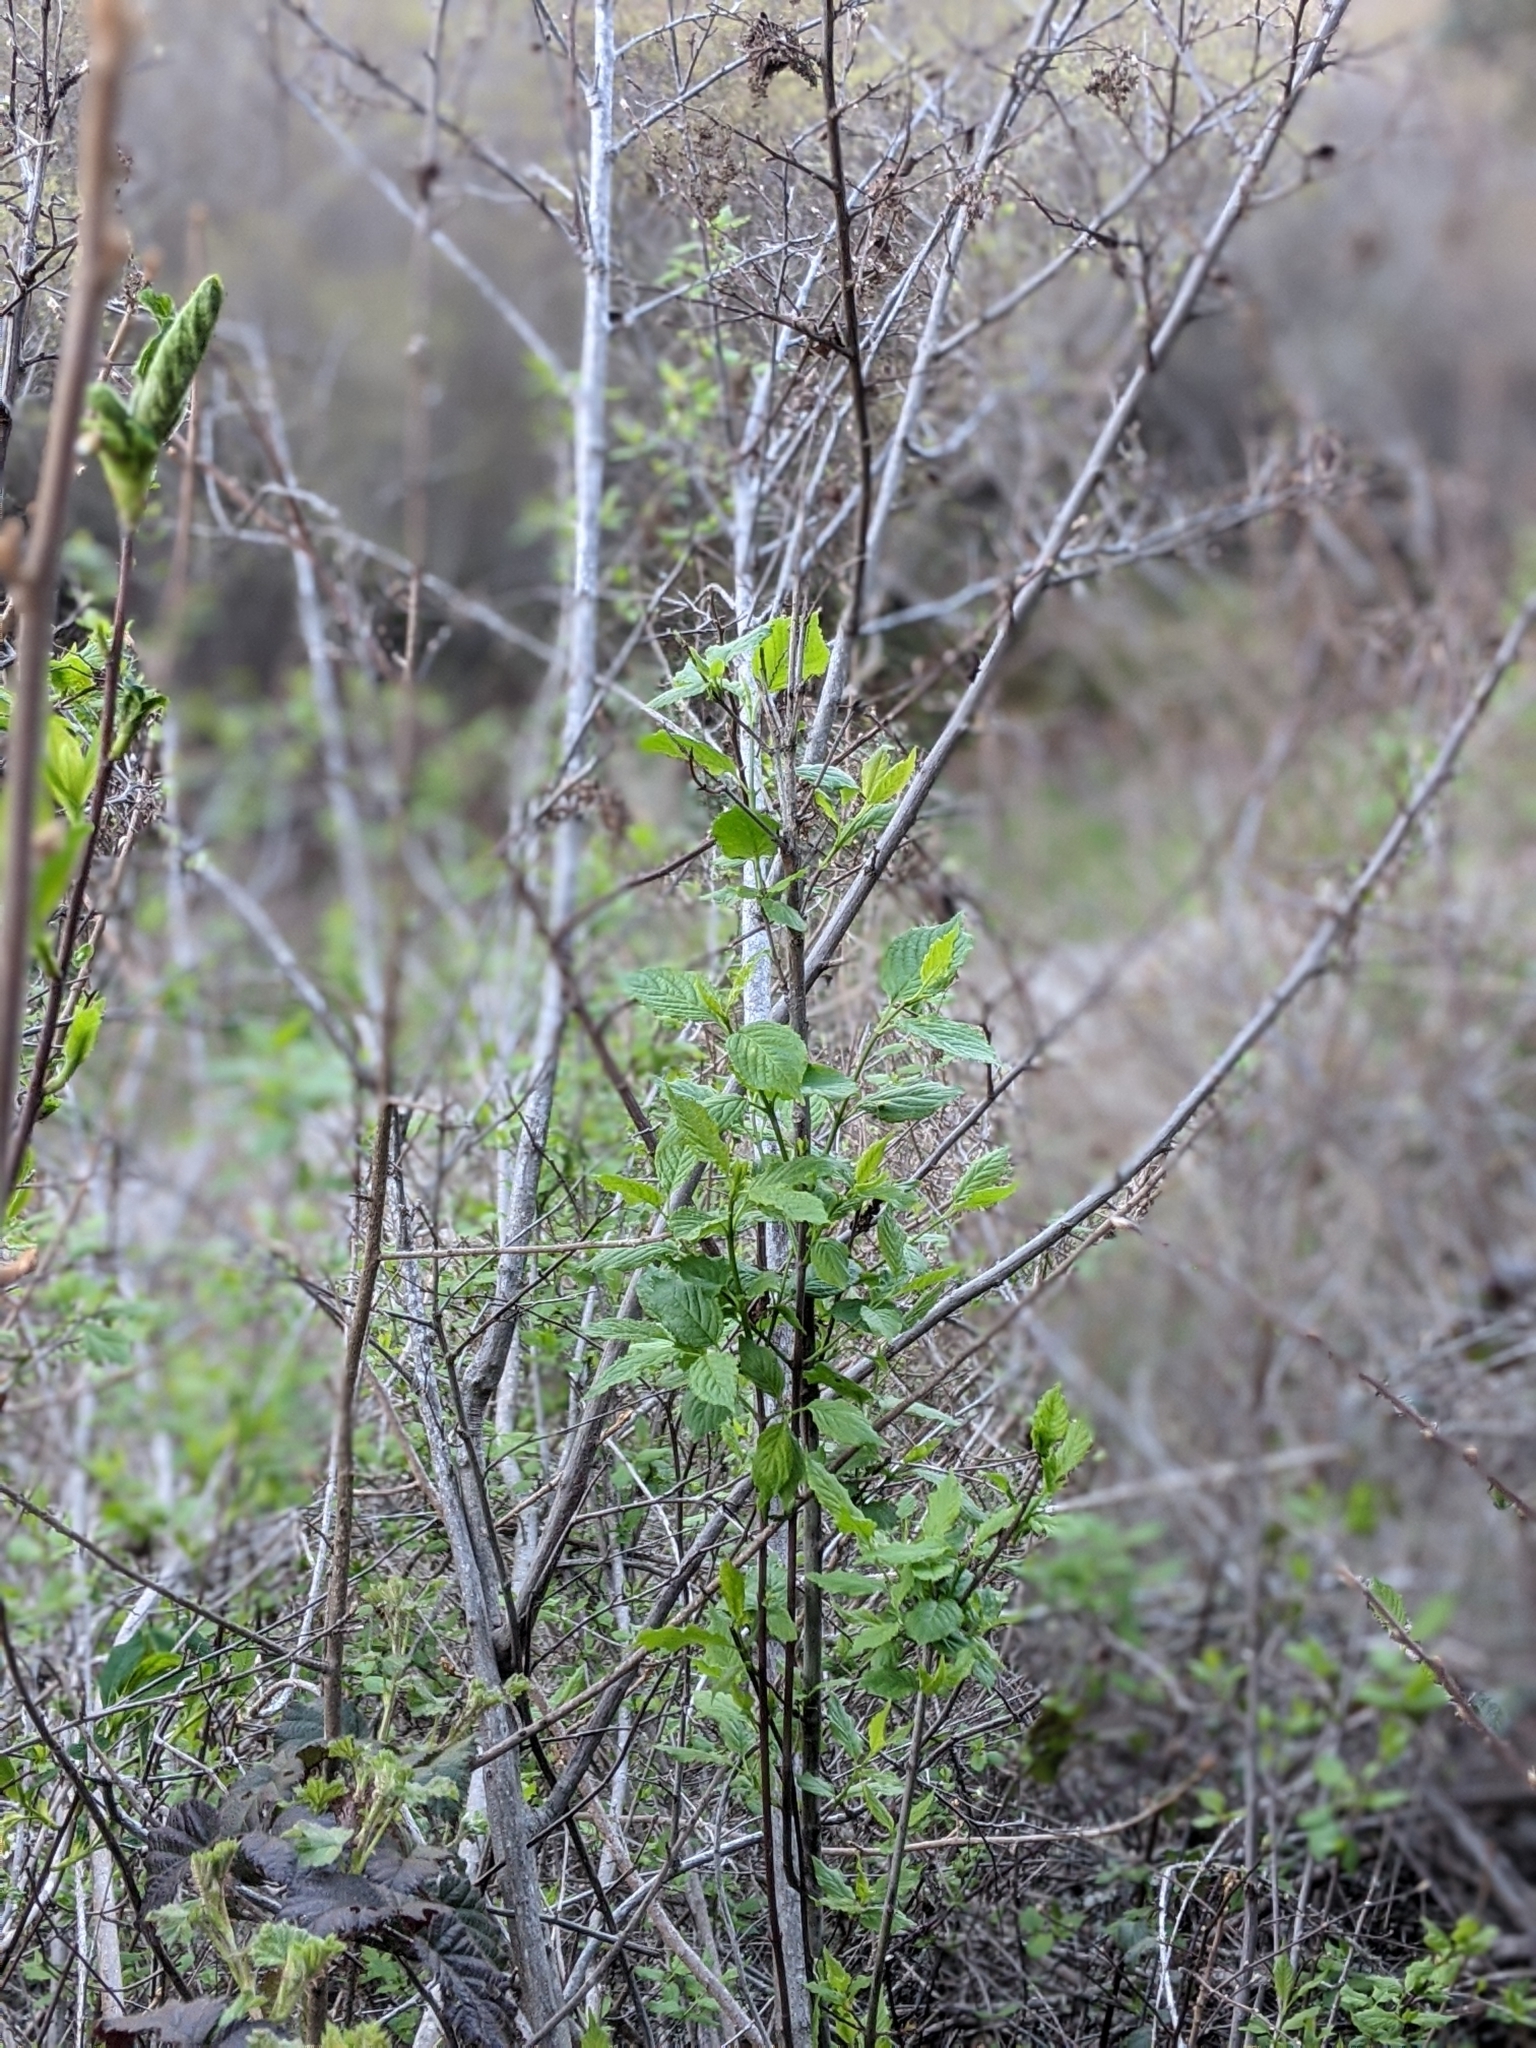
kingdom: Plantae
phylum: Tracheophyta
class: Magnoliopsida
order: Celastrales
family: Celastraceae
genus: Euonymus
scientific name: Euonymus occidentalis
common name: Western burningbush
